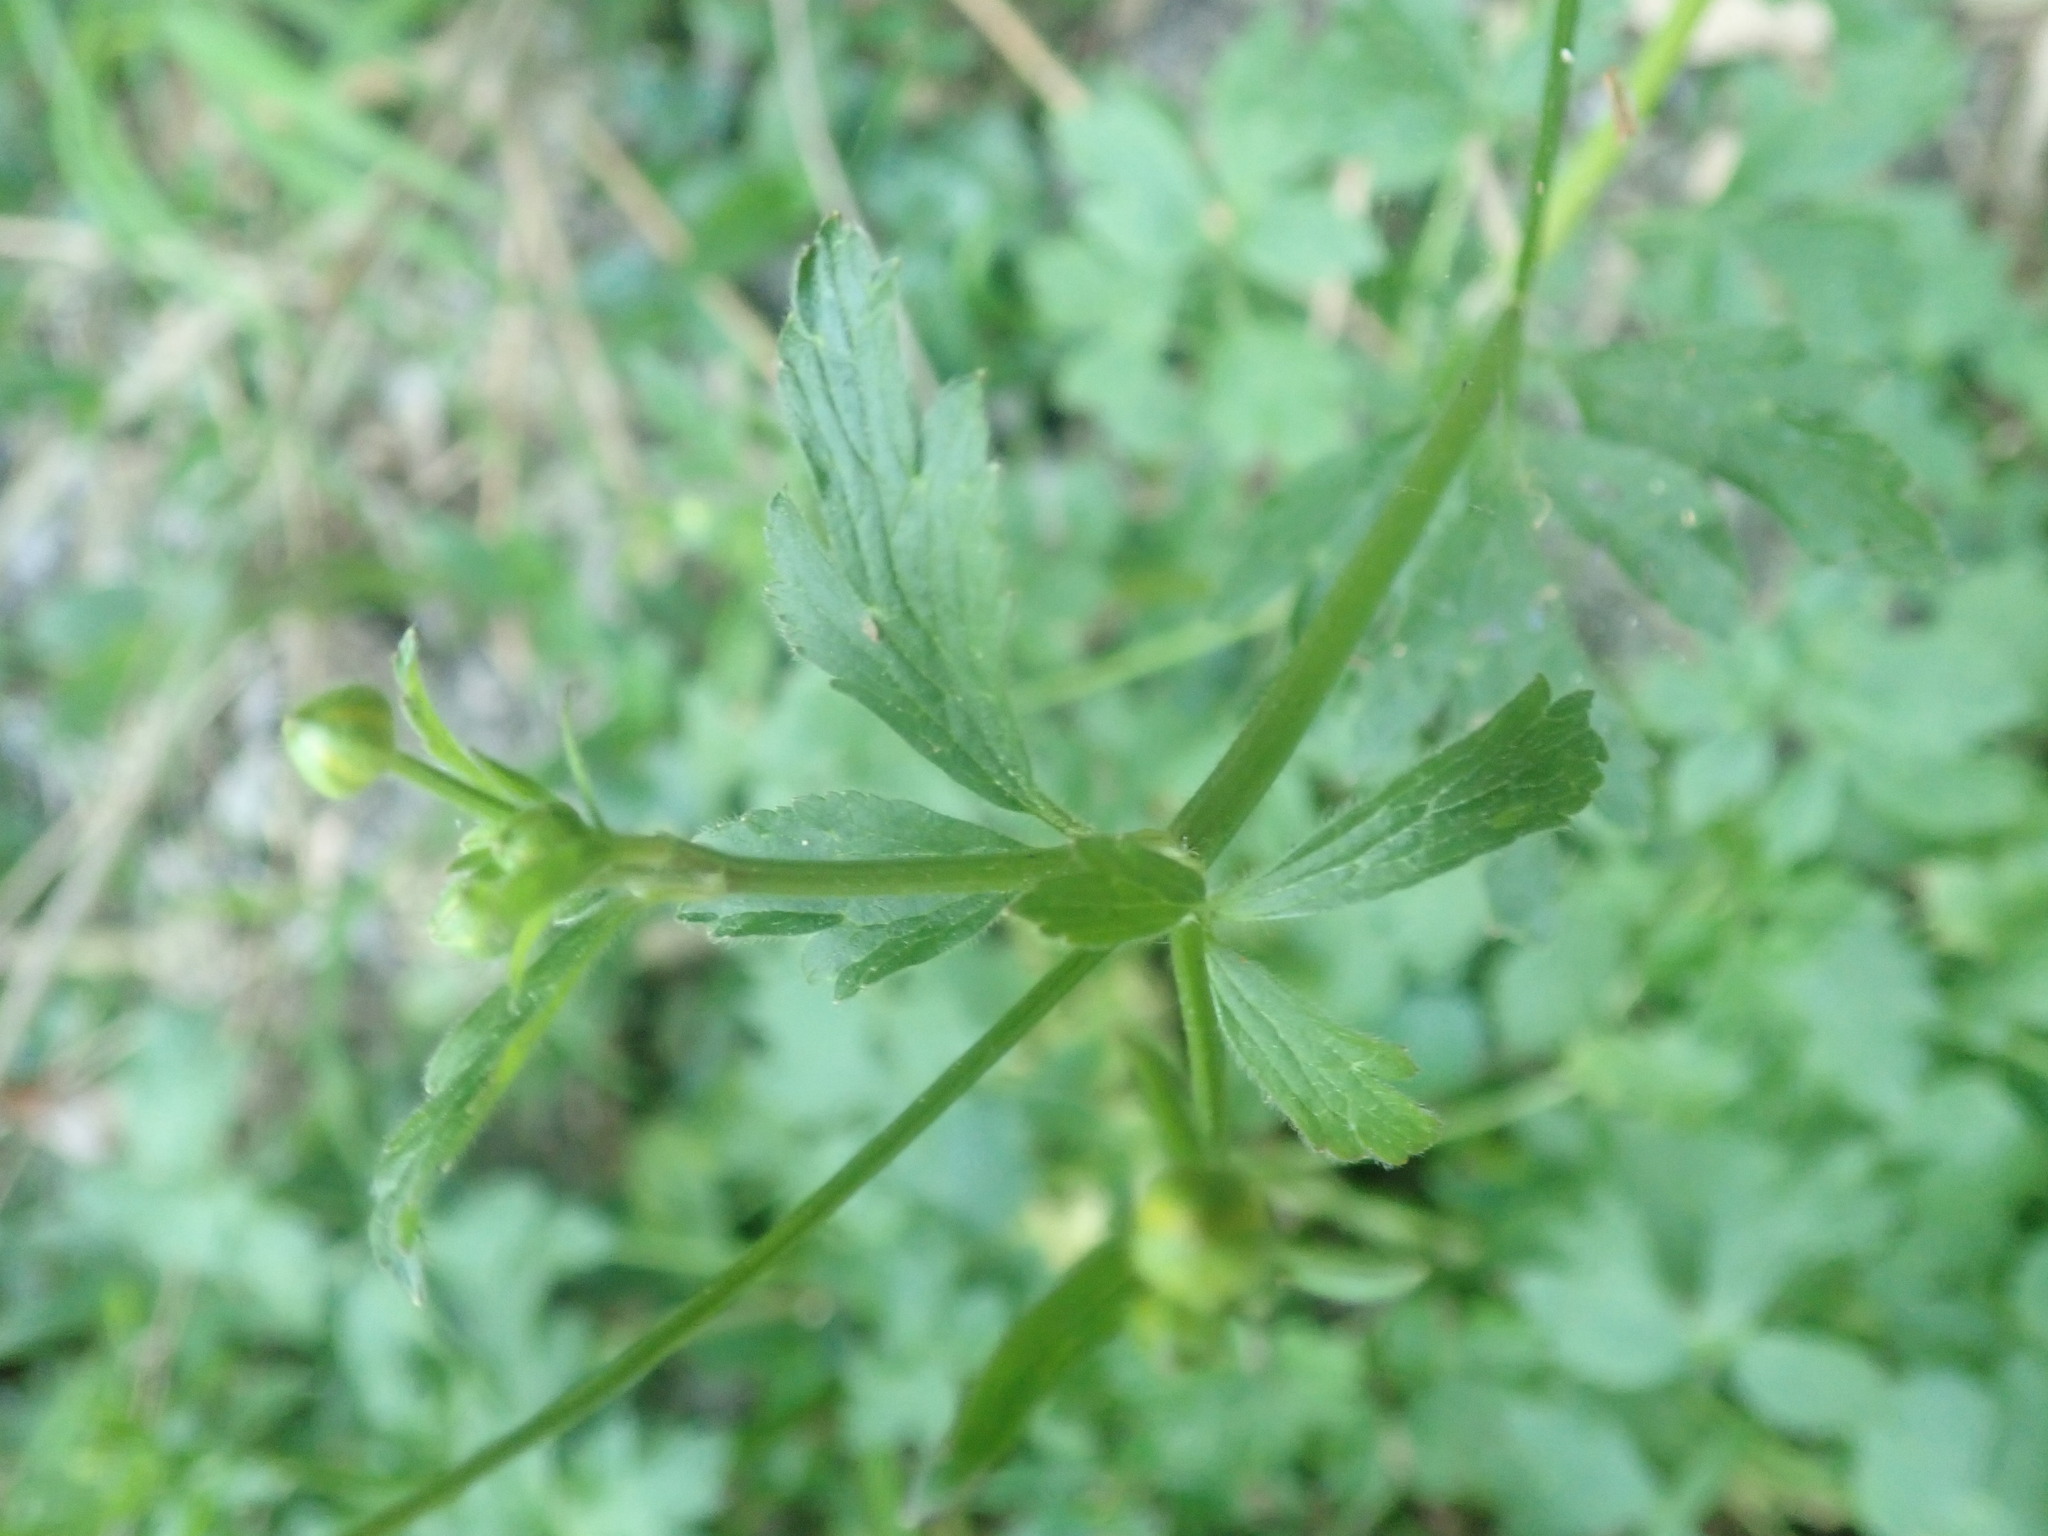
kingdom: Plantae
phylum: Tracheophyta
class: Magnoliopsida
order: Ranunculales
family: Ranunculaceae
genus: Ranunculus
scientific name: Ranunculus multifidus
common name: Wild buttercup
